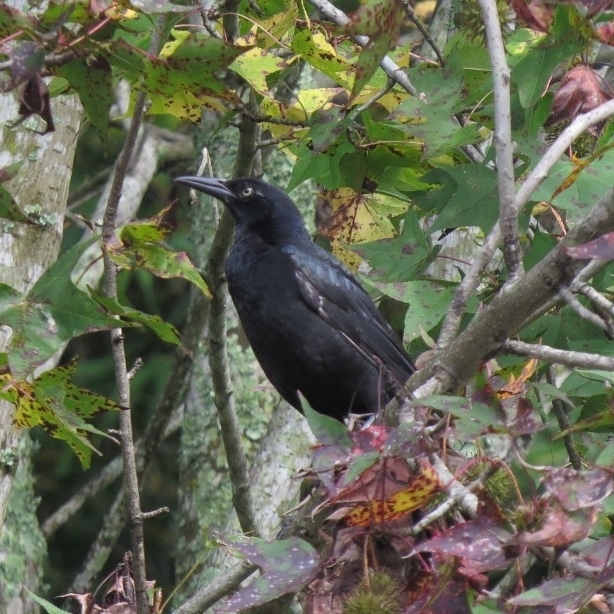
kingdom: Animalia
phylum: Chordata
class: Aves
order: Passeriformes
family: Icteridae
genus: Quiscalus
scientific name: Quiscalus mexicanus
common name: Great-tailed grackle
